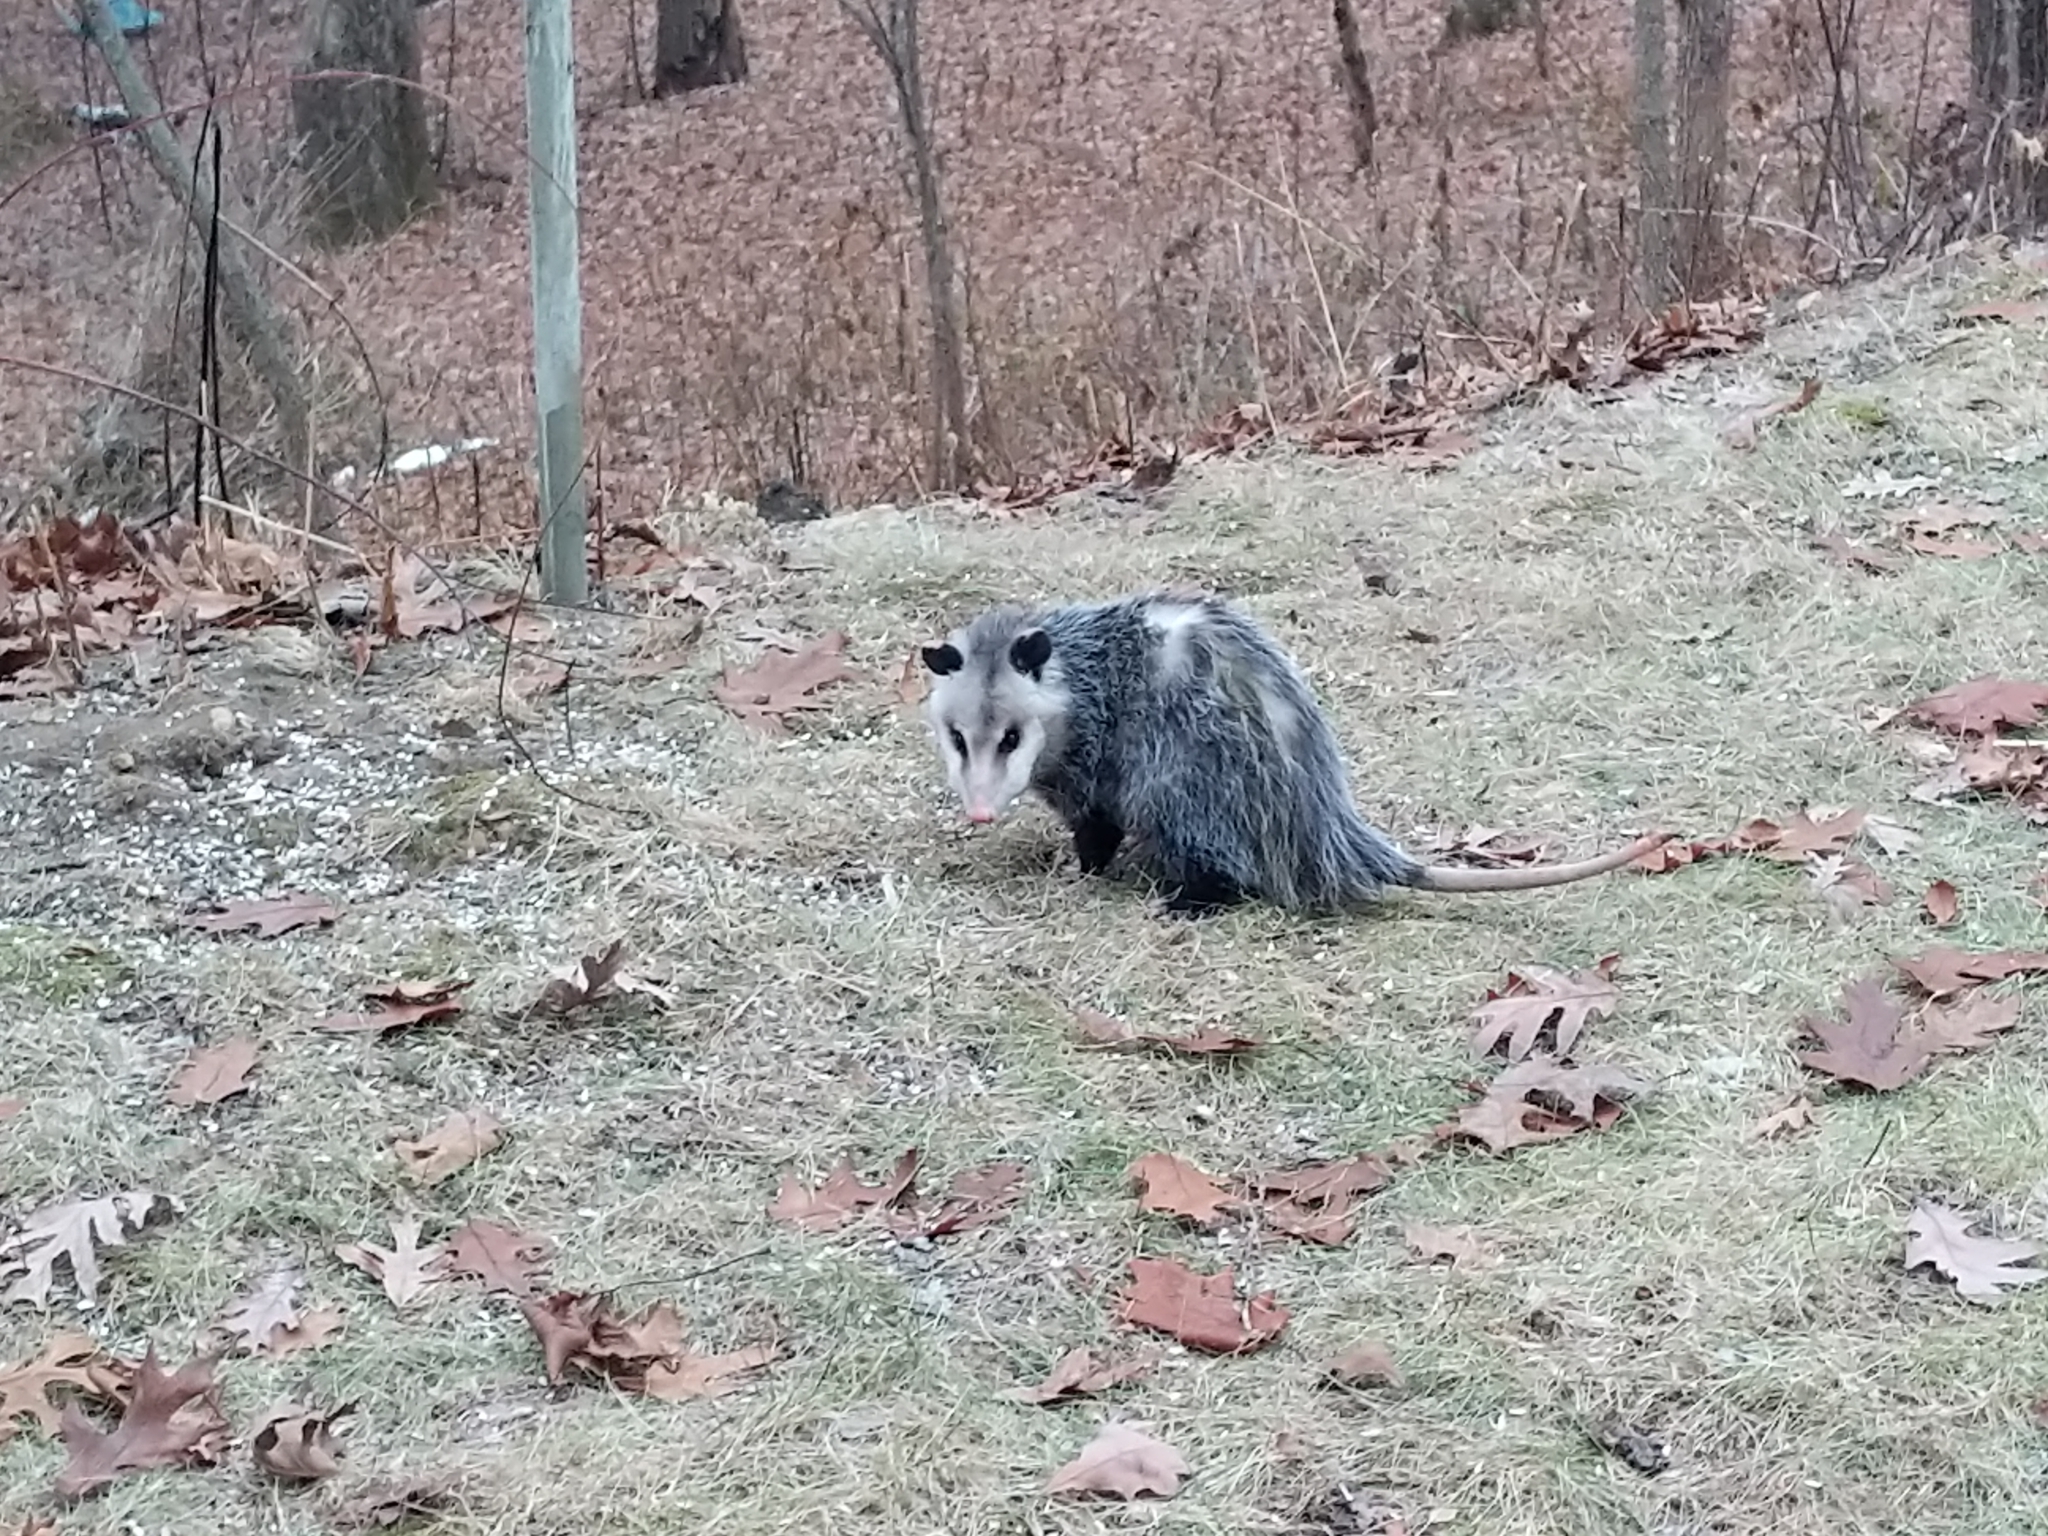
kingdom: Animalia
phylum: Chordata
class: Mammalia
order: Didelphimorphia
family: Didelphidae
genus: Didelphis
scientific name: Didelphis virginiana
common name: Virginia opossum
